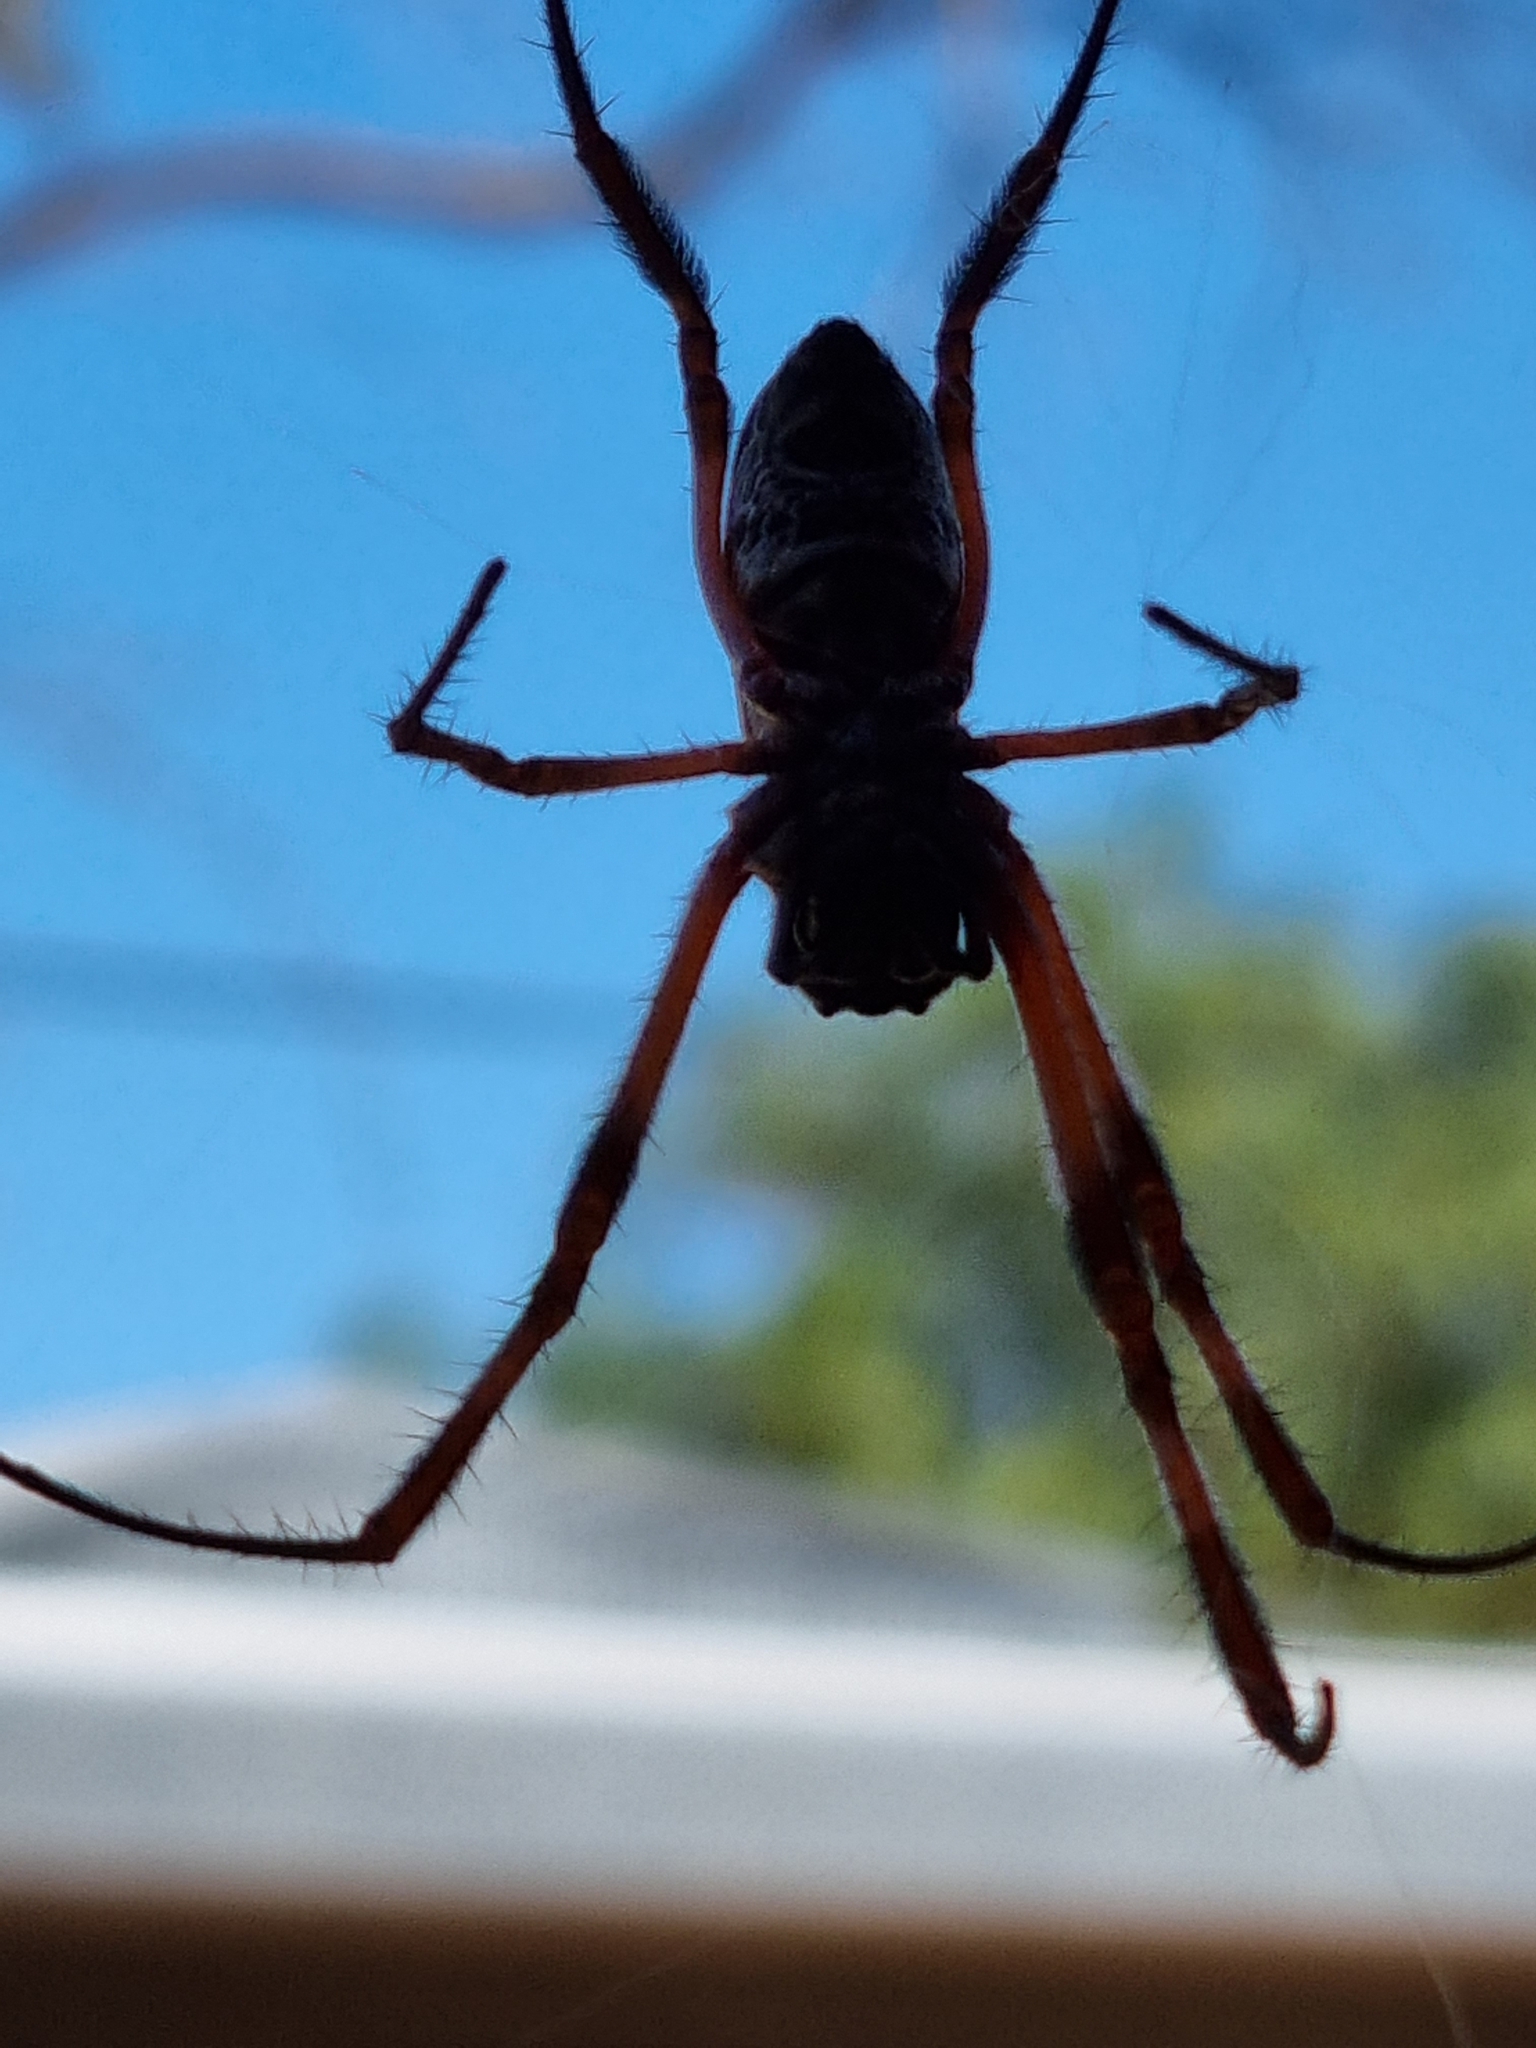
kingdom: Animalia
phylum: Arthropoda
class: Arachnida
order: Araneae
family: Araneidae
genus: Trichonephila
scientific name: Trichonephila edulis
